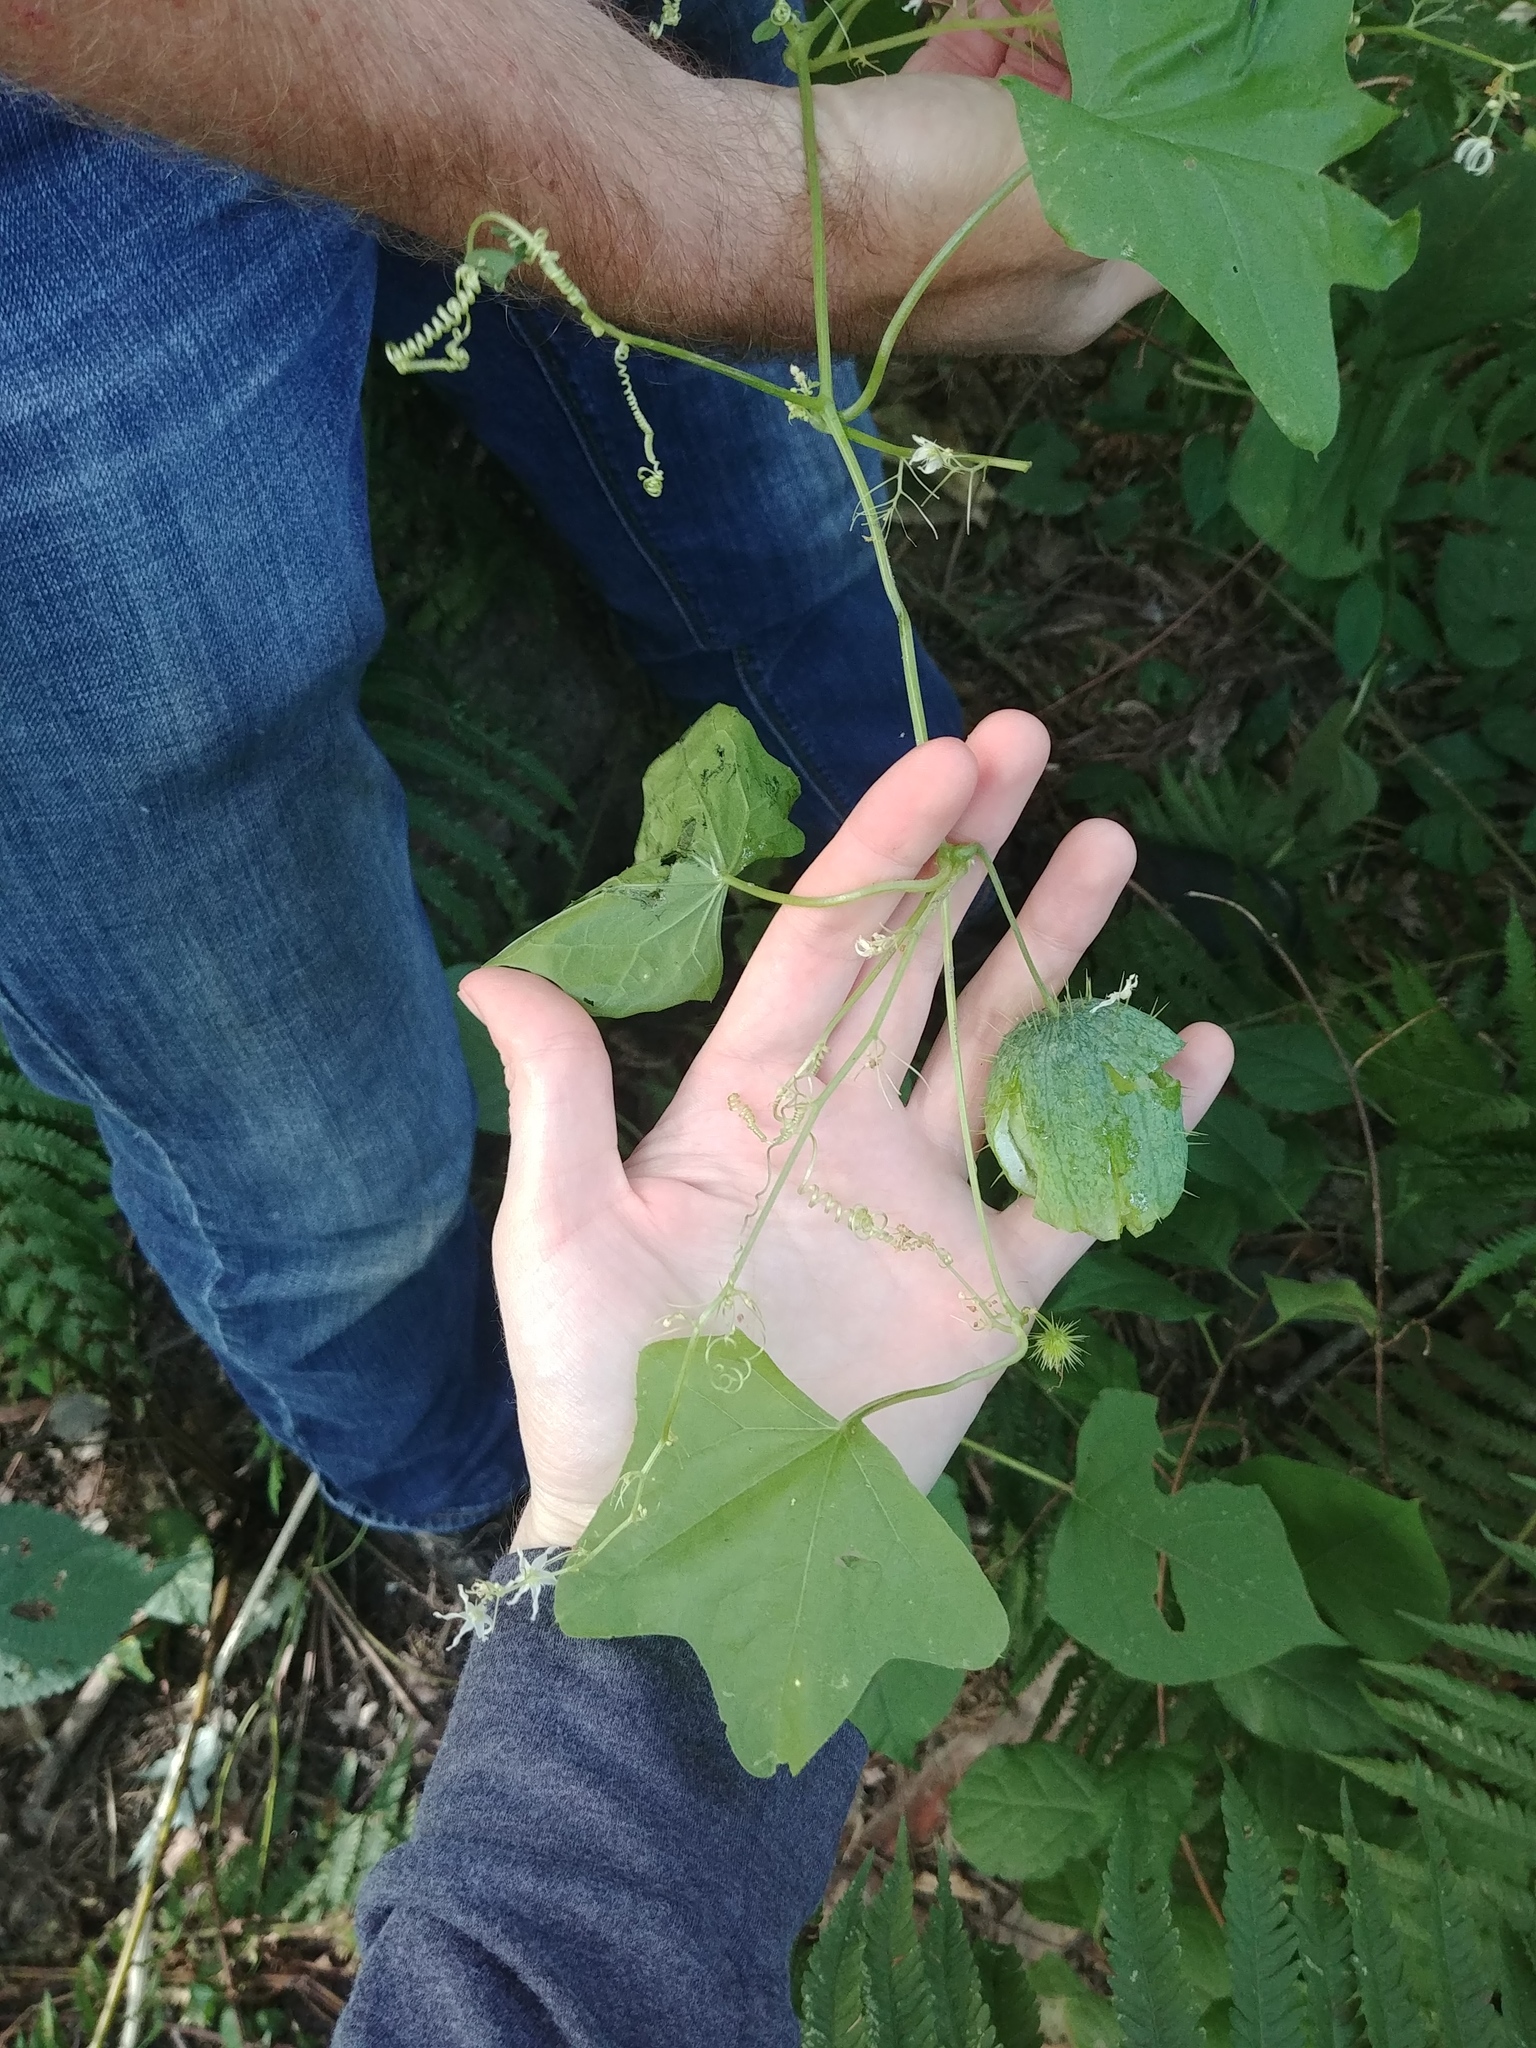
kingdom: Plantae
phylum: Tracheophyta
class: Magnoliopsida
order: Cucurbitales
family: Cucurbitaceae
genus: Echinocystis
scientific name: Echinocystis lobata
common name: Wild cucumber
